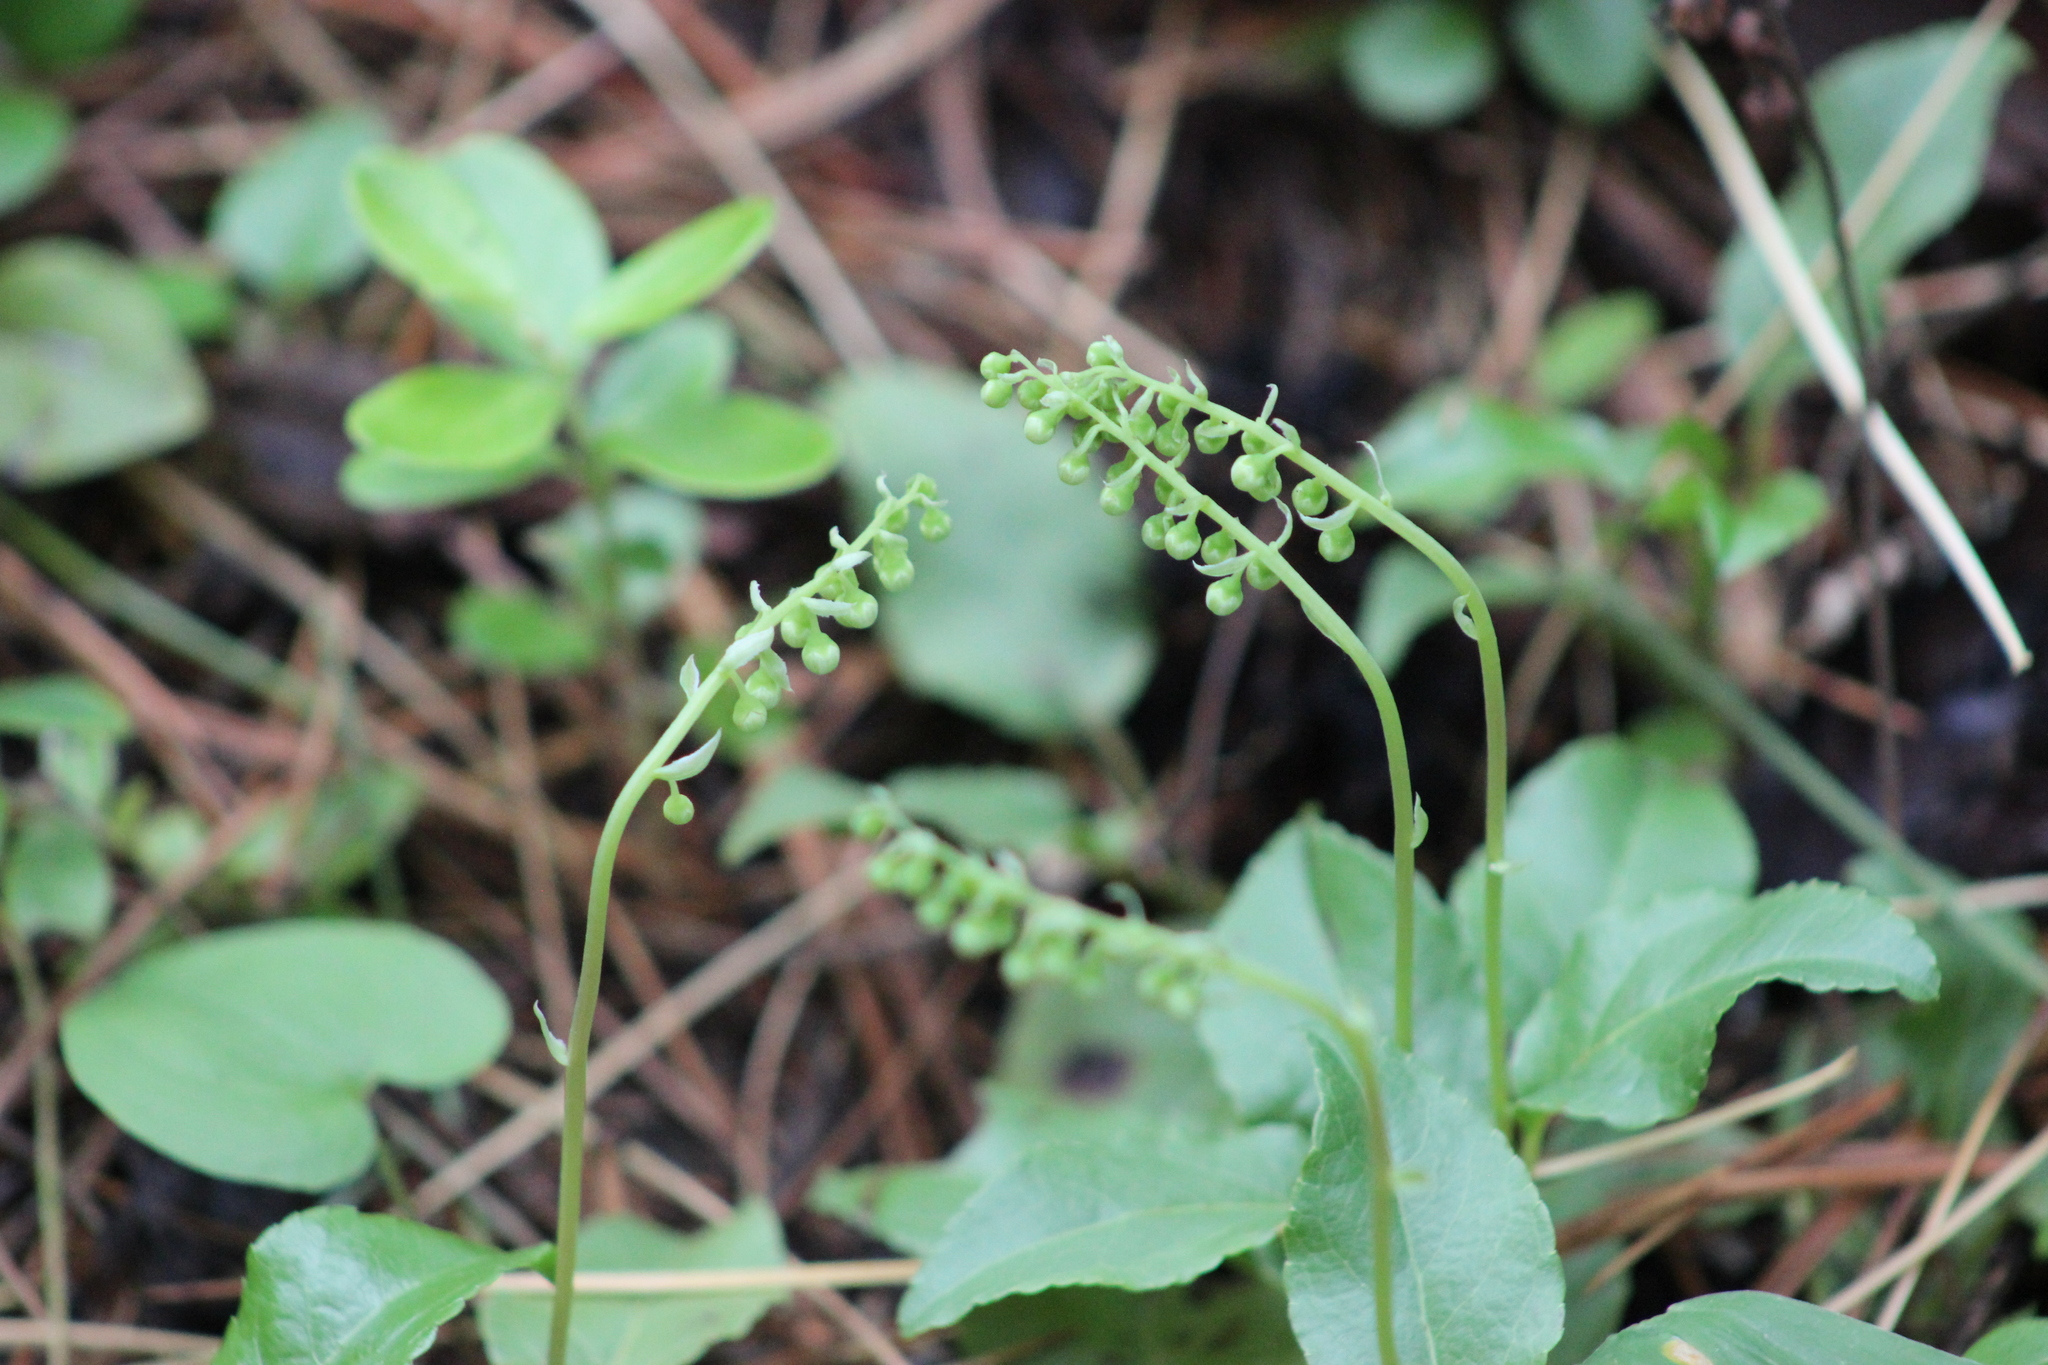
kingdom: Plantae
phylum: Tracheophyta
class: Magnoliopsida
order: Ericales
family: Ericaceae
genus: Orthilia
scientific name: Orthilia secunda
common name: One-sided orthilia
